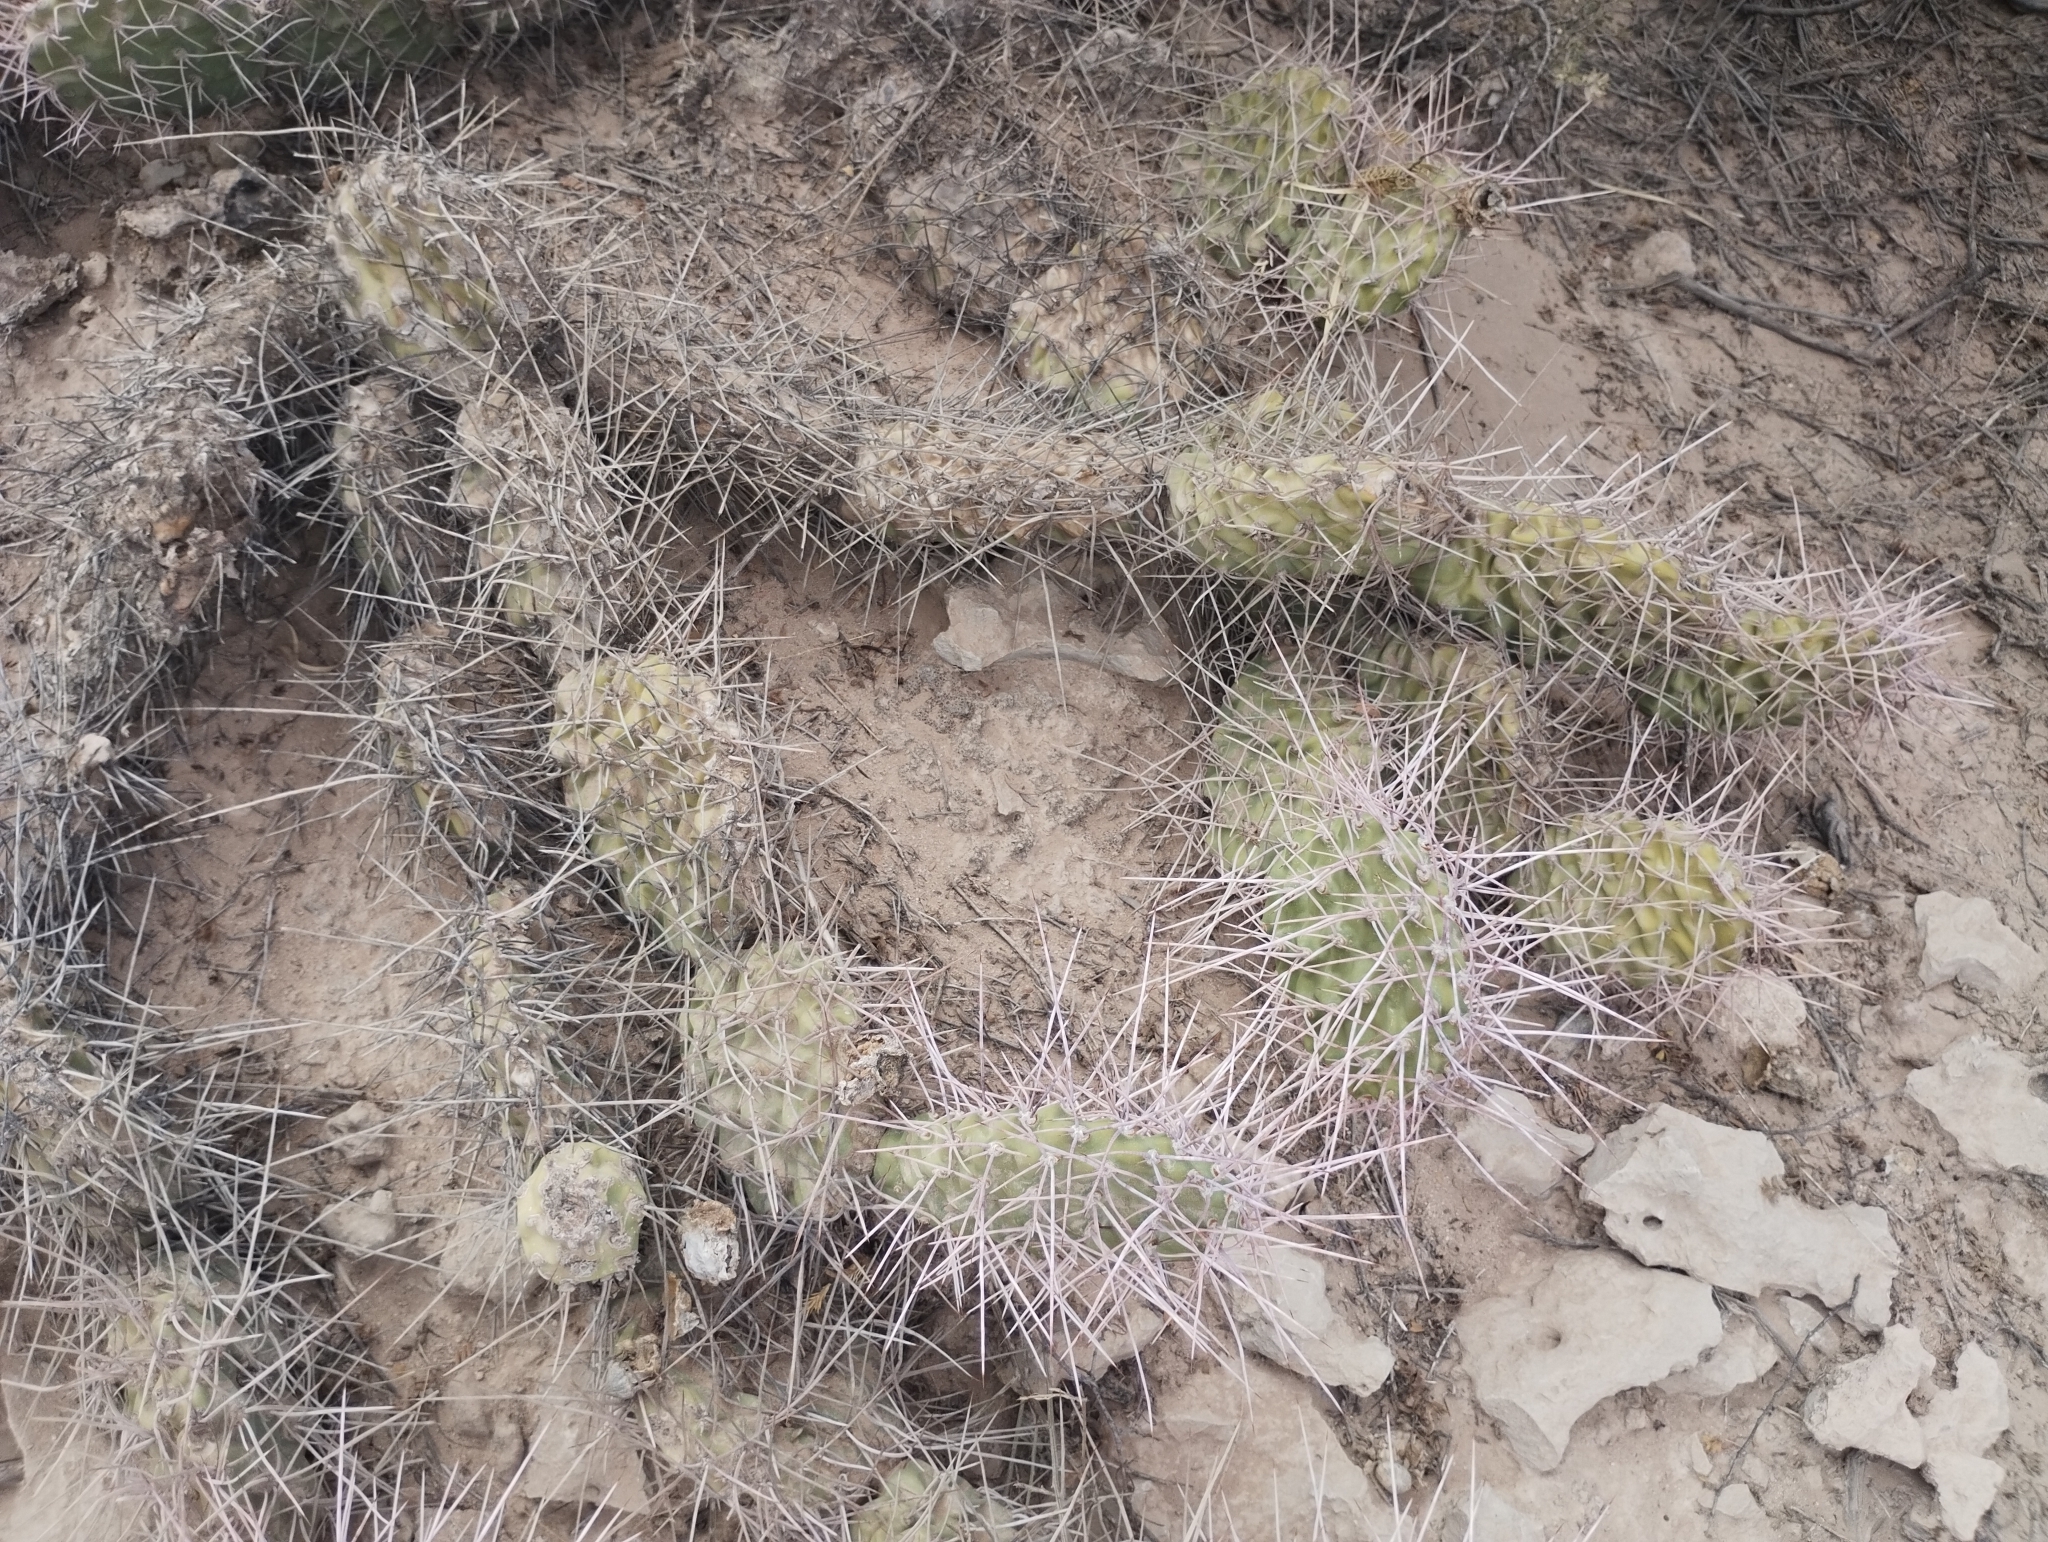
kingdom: Plantae
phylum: Tracheophyta
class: Magnoliopsida
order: Caryophyllales
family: Cactaceae
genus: Opuntia
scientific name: Opuntia sulphurea
